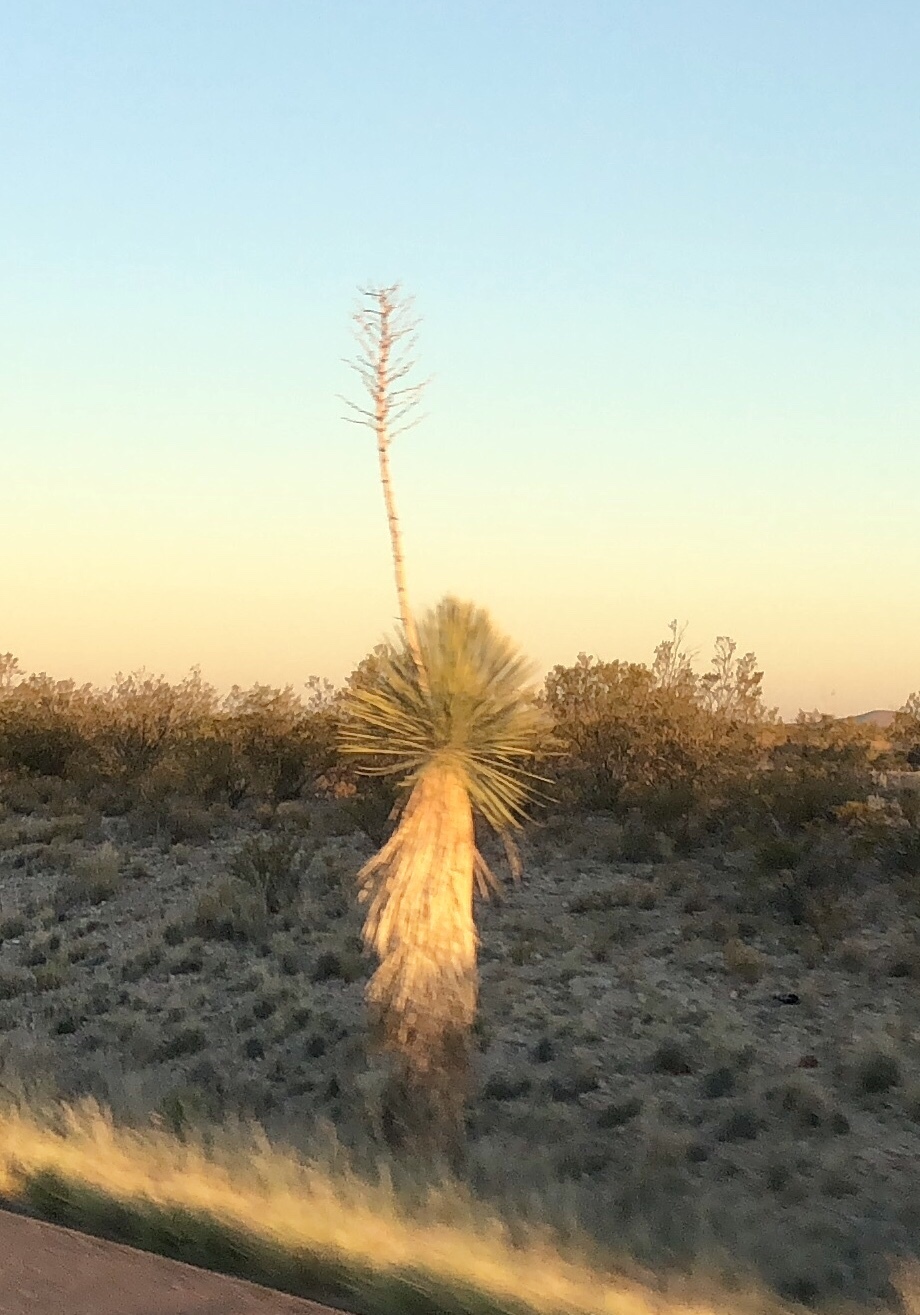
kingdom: Plantae
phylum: Tracheophyta
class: Liliopsida
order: Asparagales
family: Asparagaceae
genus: Yucca
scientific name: Yucca elata
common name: Palmella
